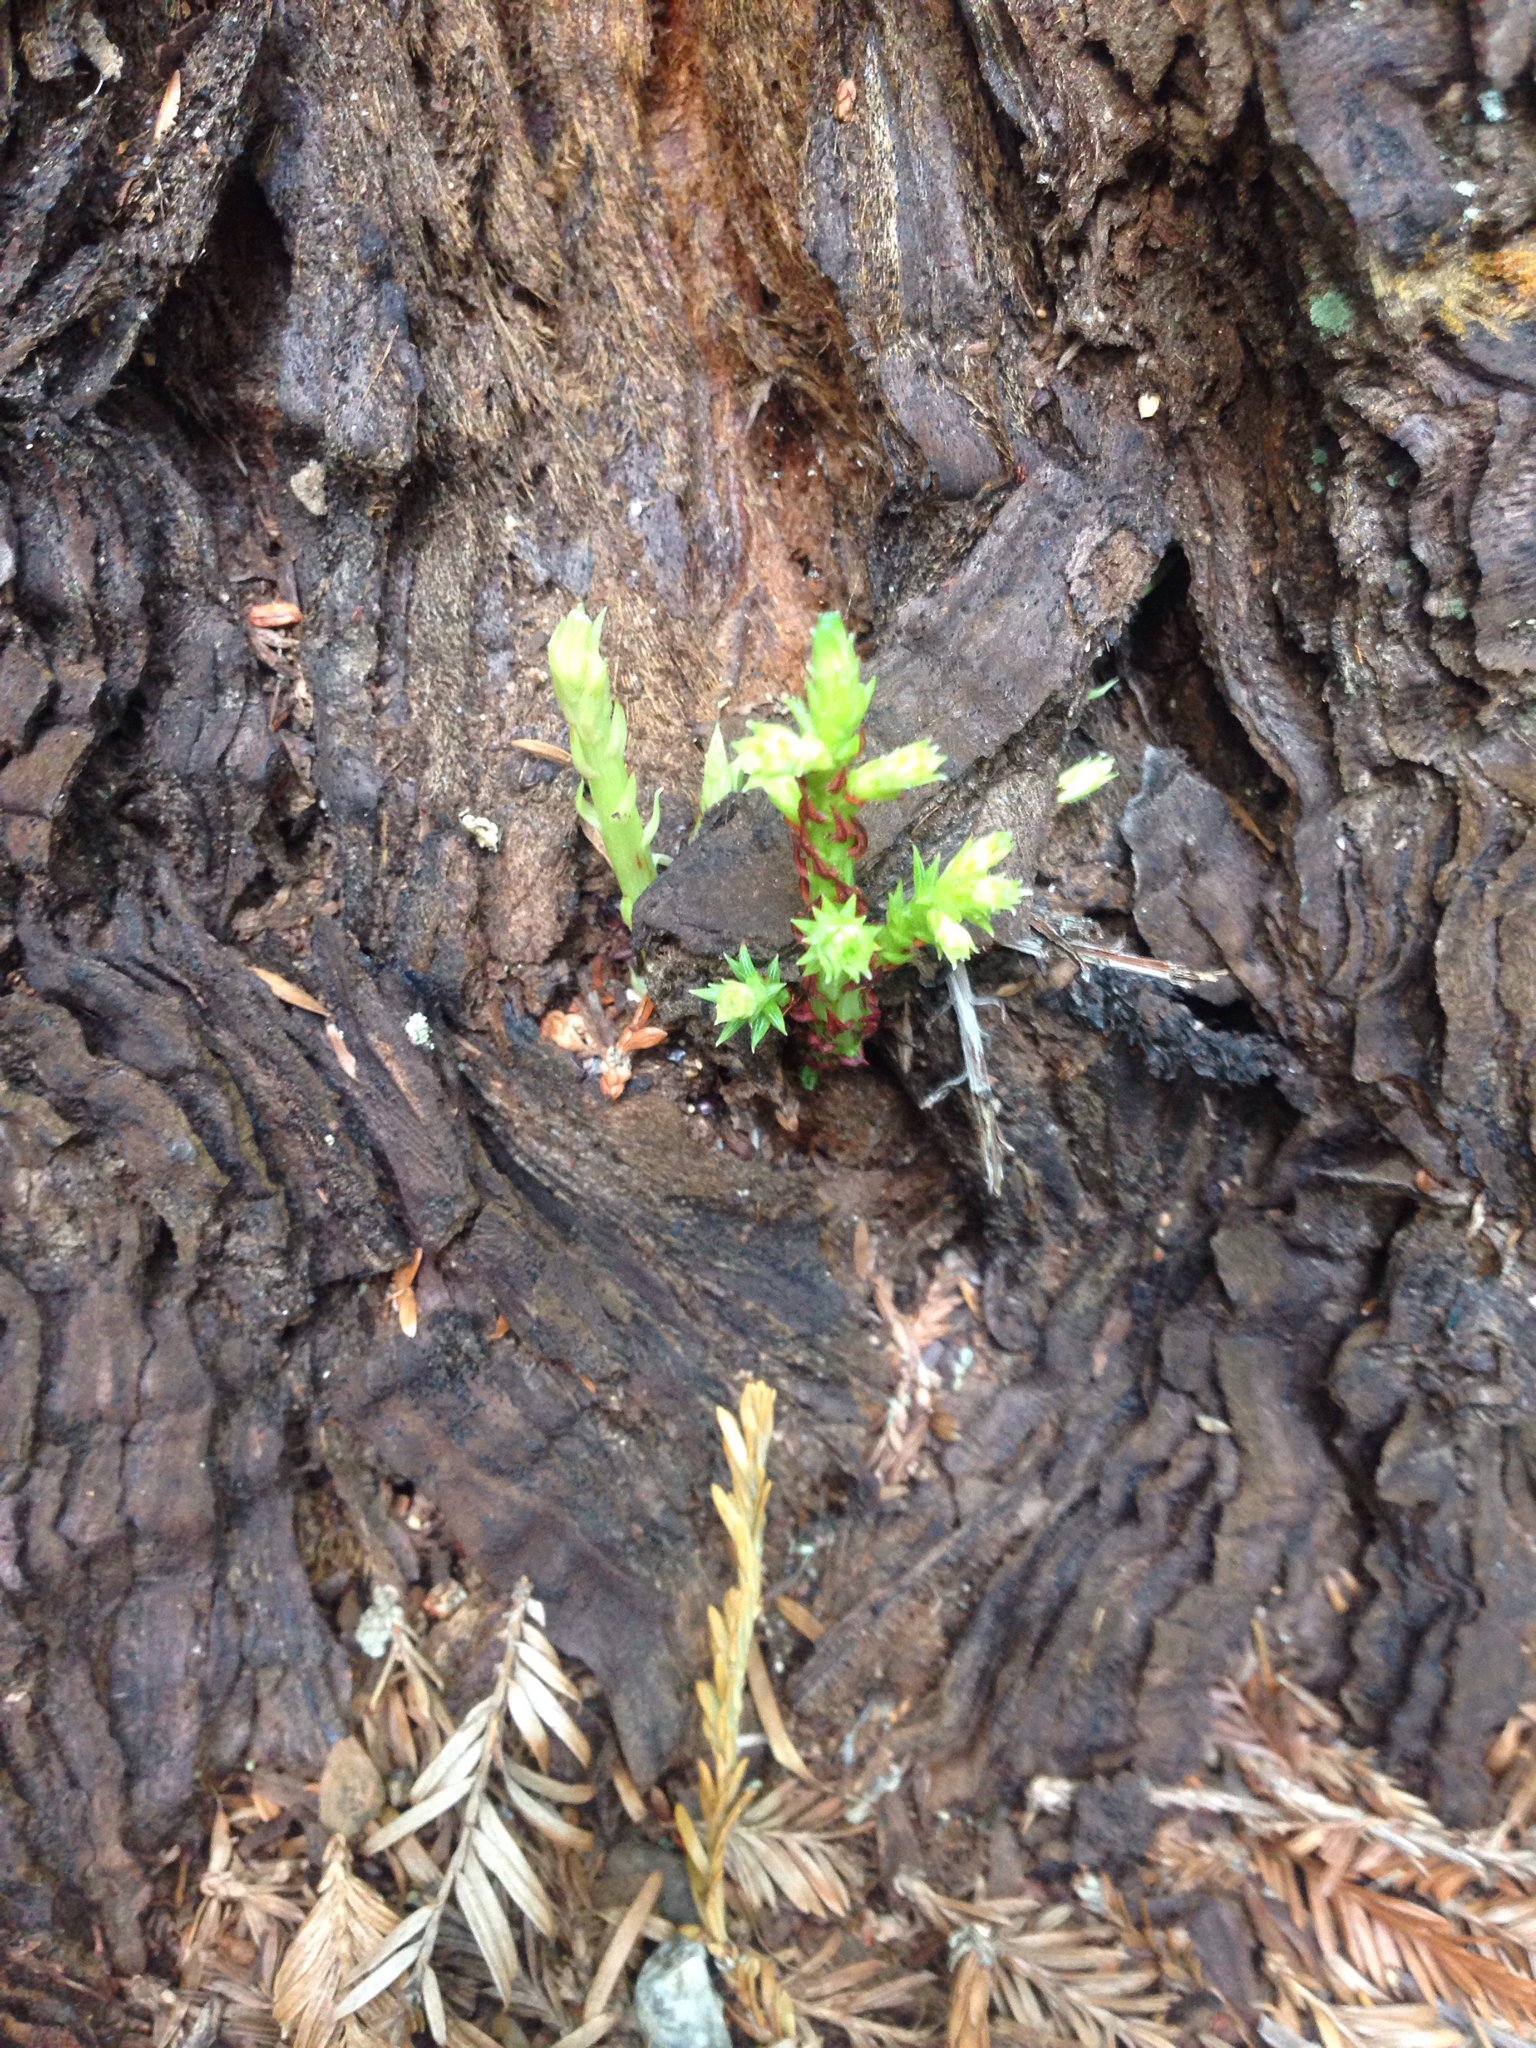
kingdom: Plantae
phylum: Tracheophyta
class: Pinopsida
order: Pinales
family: Cupressaceae
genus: Sequoia
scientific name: Sequoia sempervirens
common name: Coast redwood
